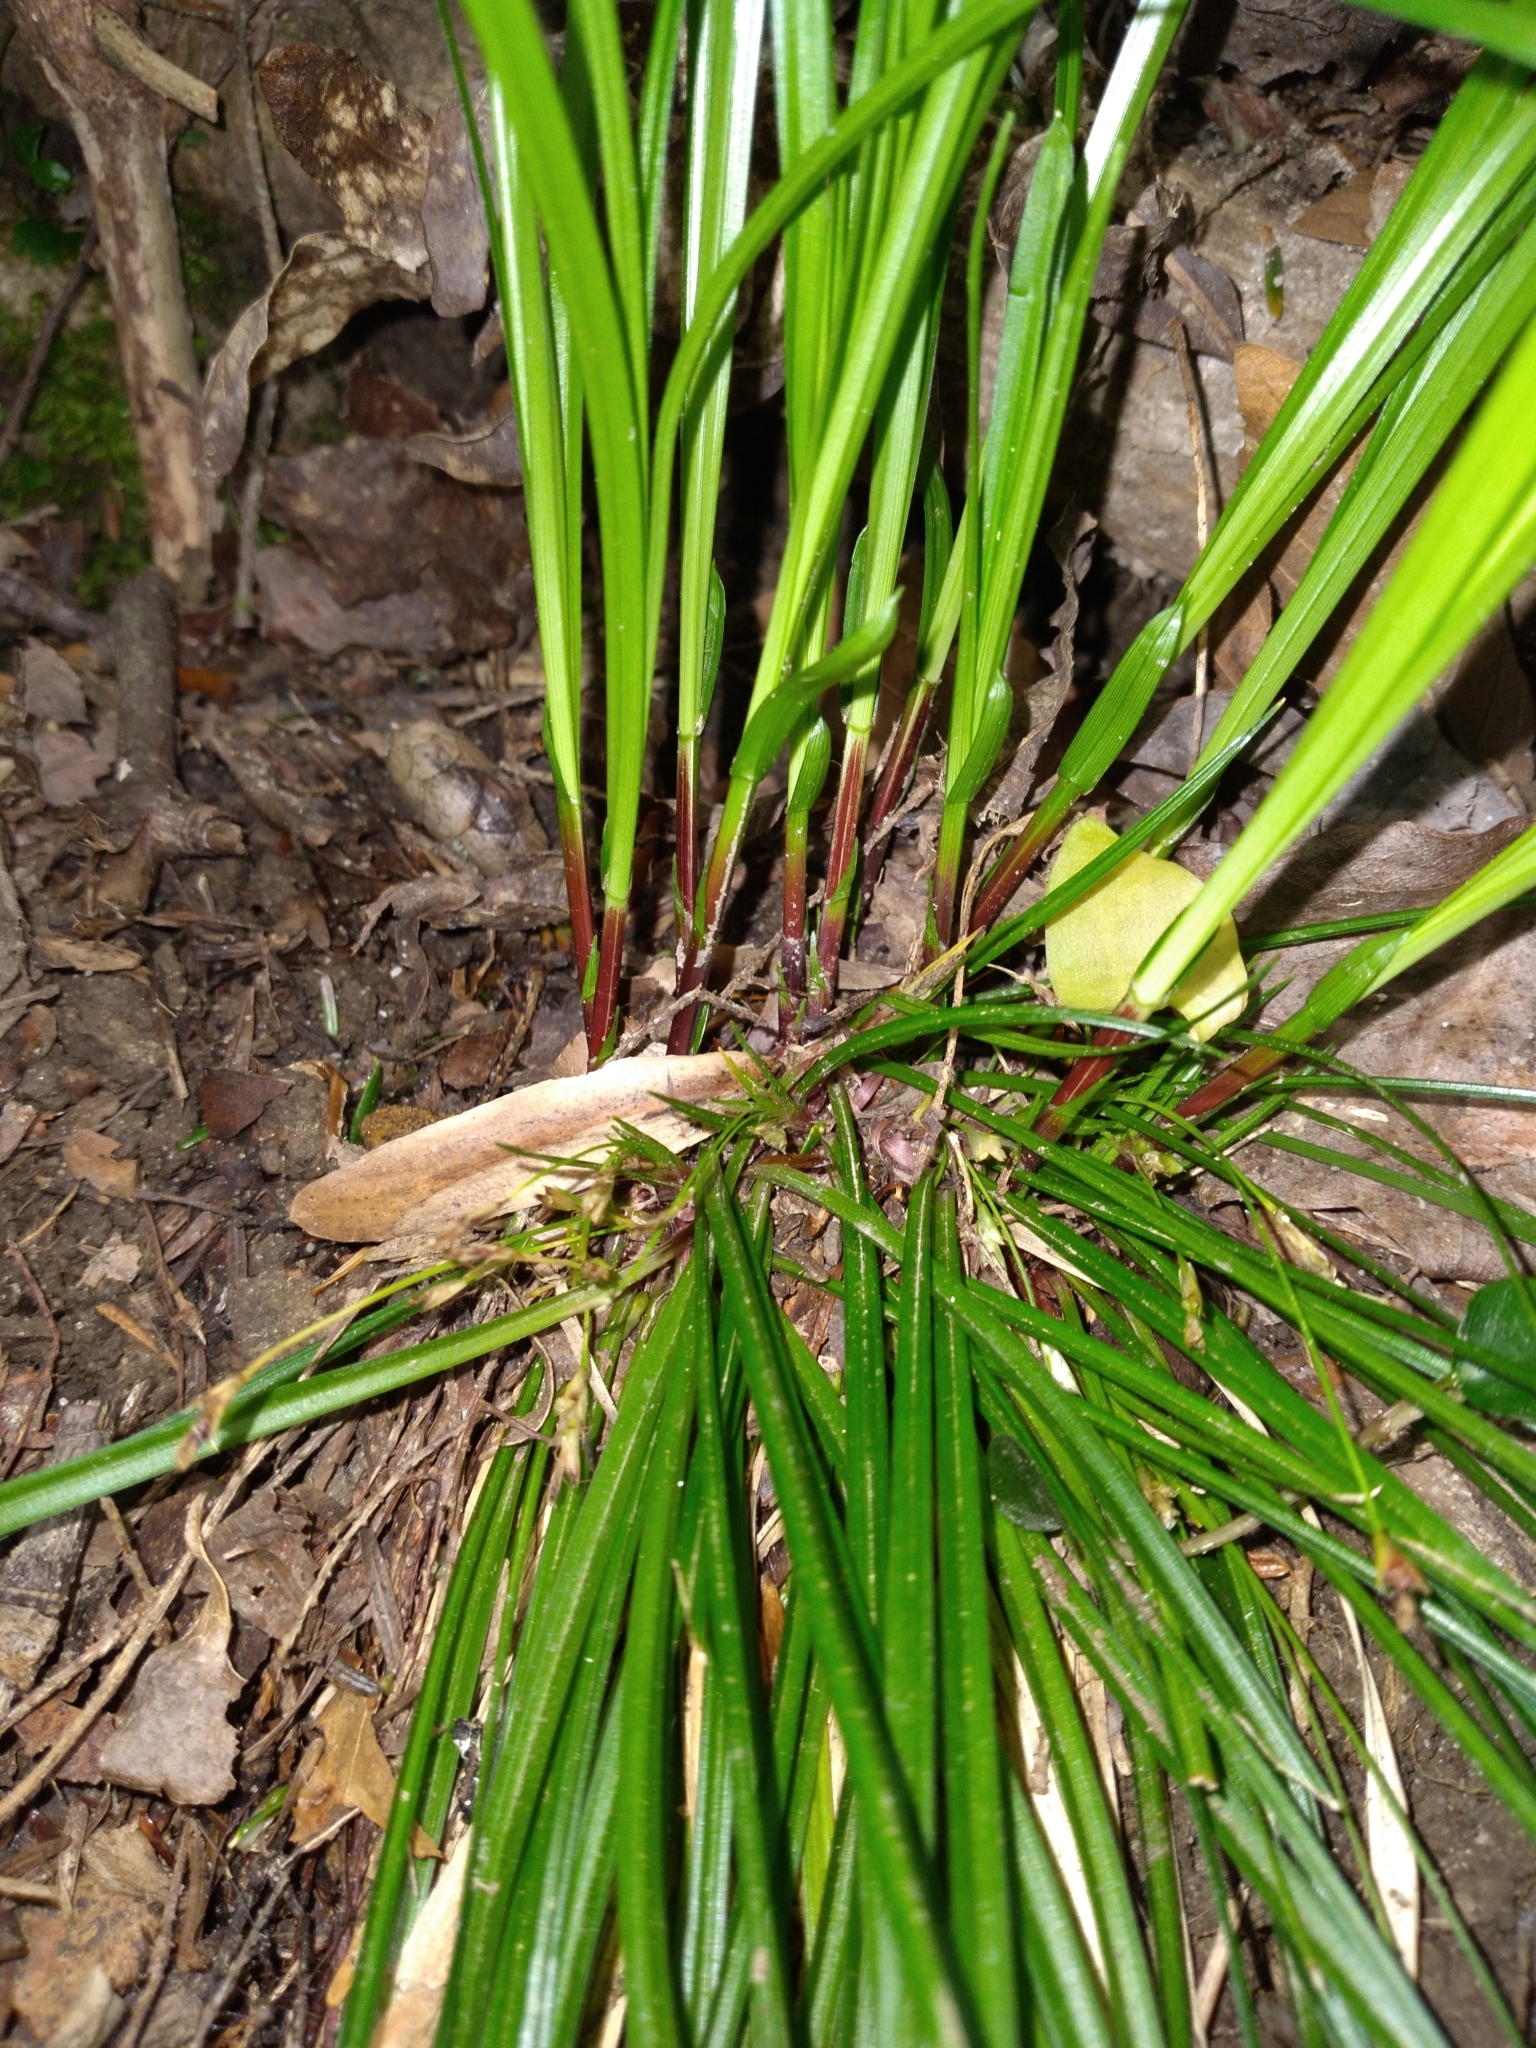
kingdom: Plantae
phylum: Tracheophyta
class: Liliopsida
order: Poales
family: Cyperaceae
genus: Carex
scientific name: Carex pedunculata
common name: Pedunculate sedge
